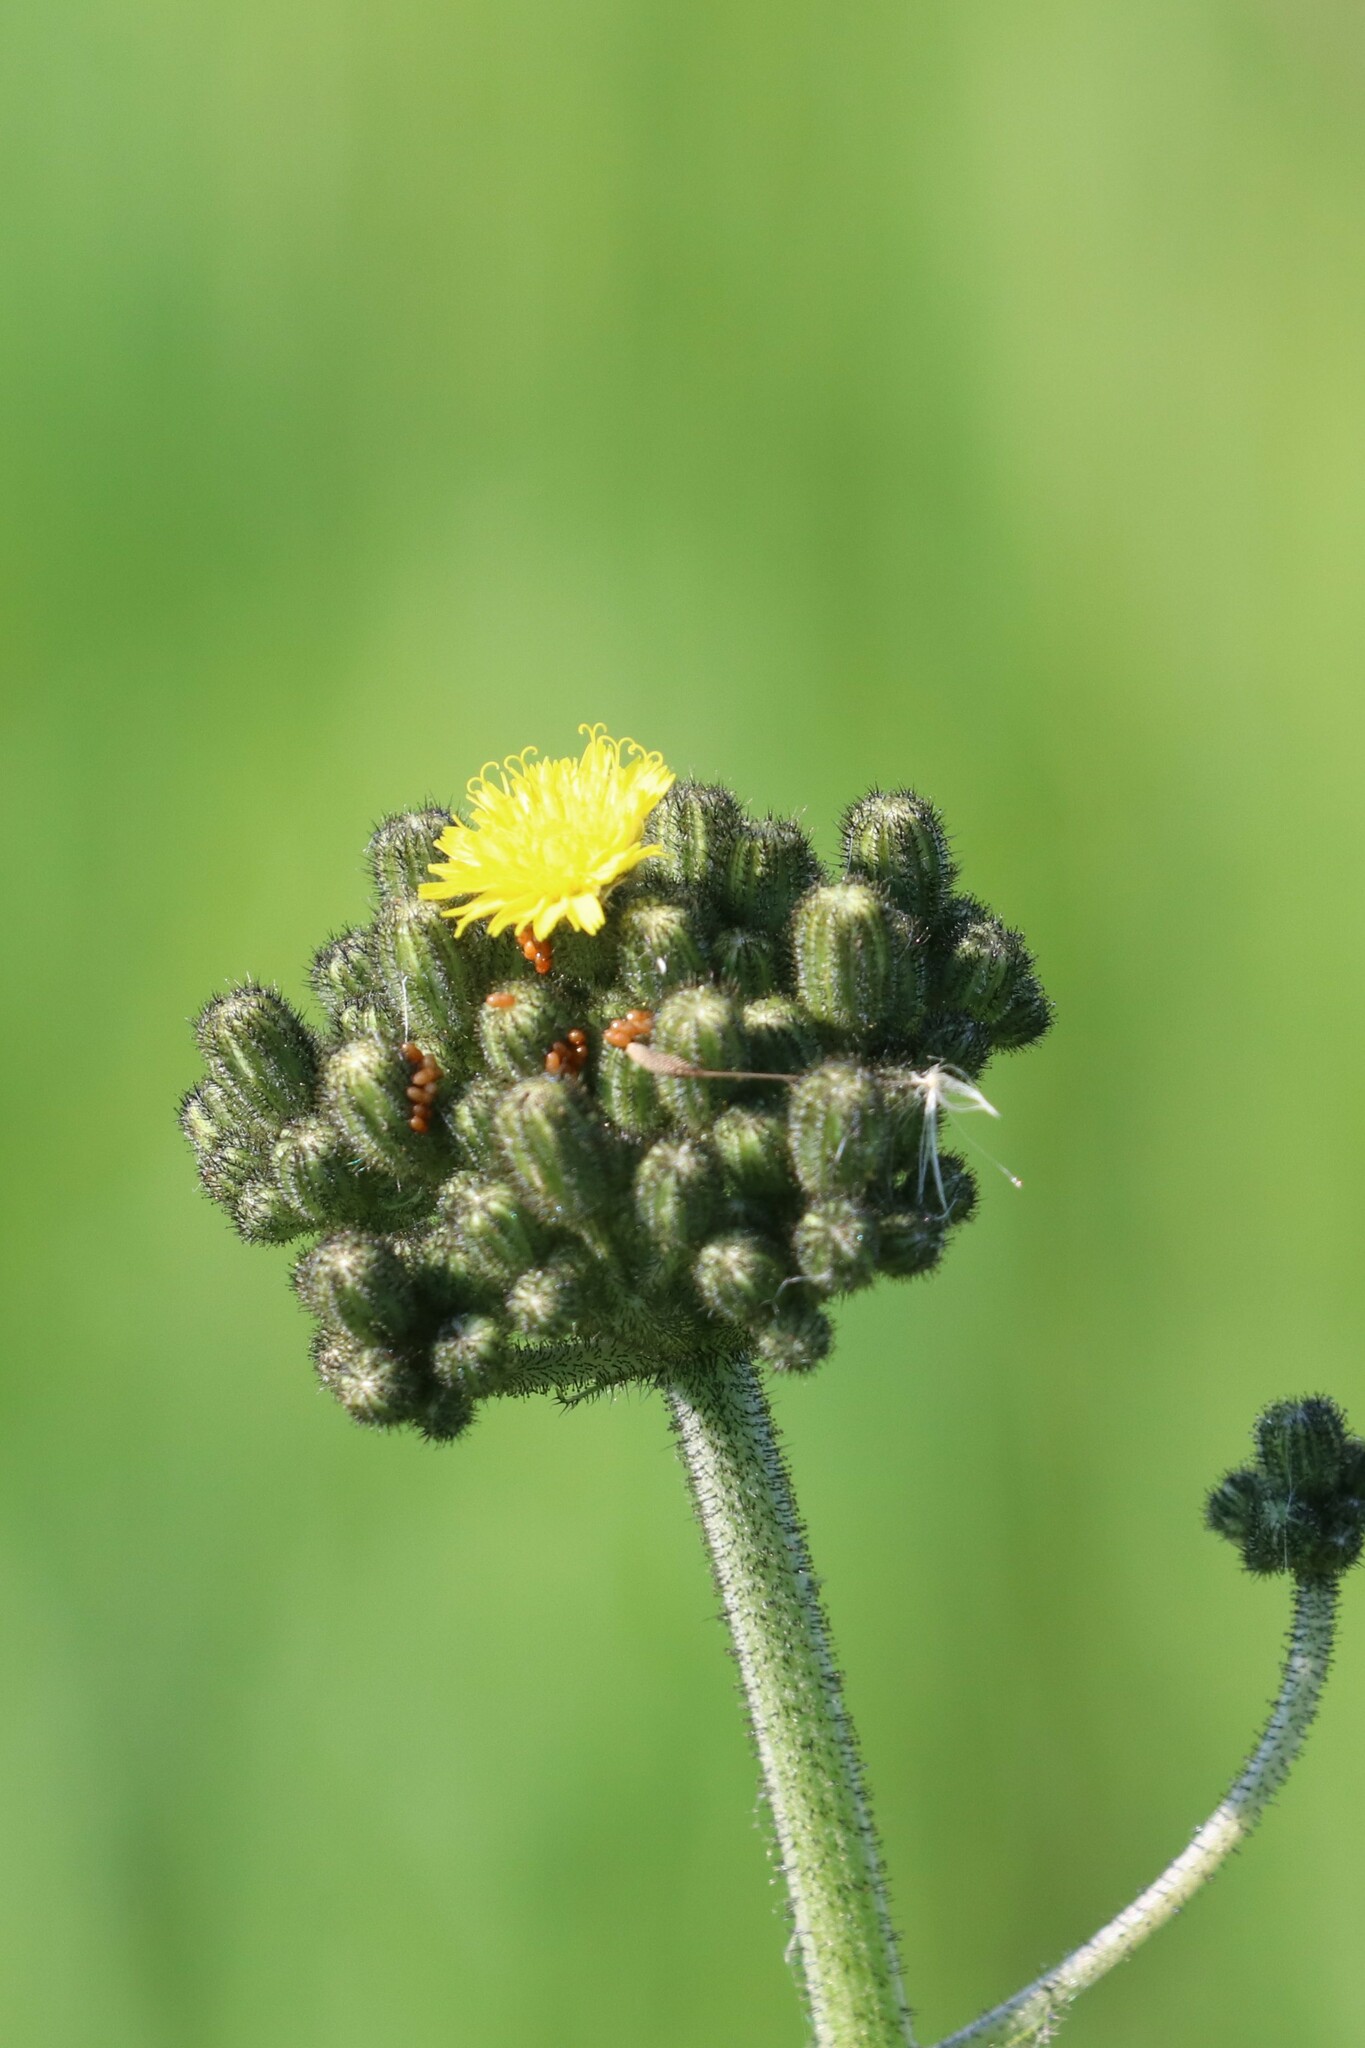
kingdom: Plantae
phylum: Tracheophyta
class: Magnoliopsida
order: Asterales
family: Asteraceae
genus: Pilosella
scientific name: Pilosella
